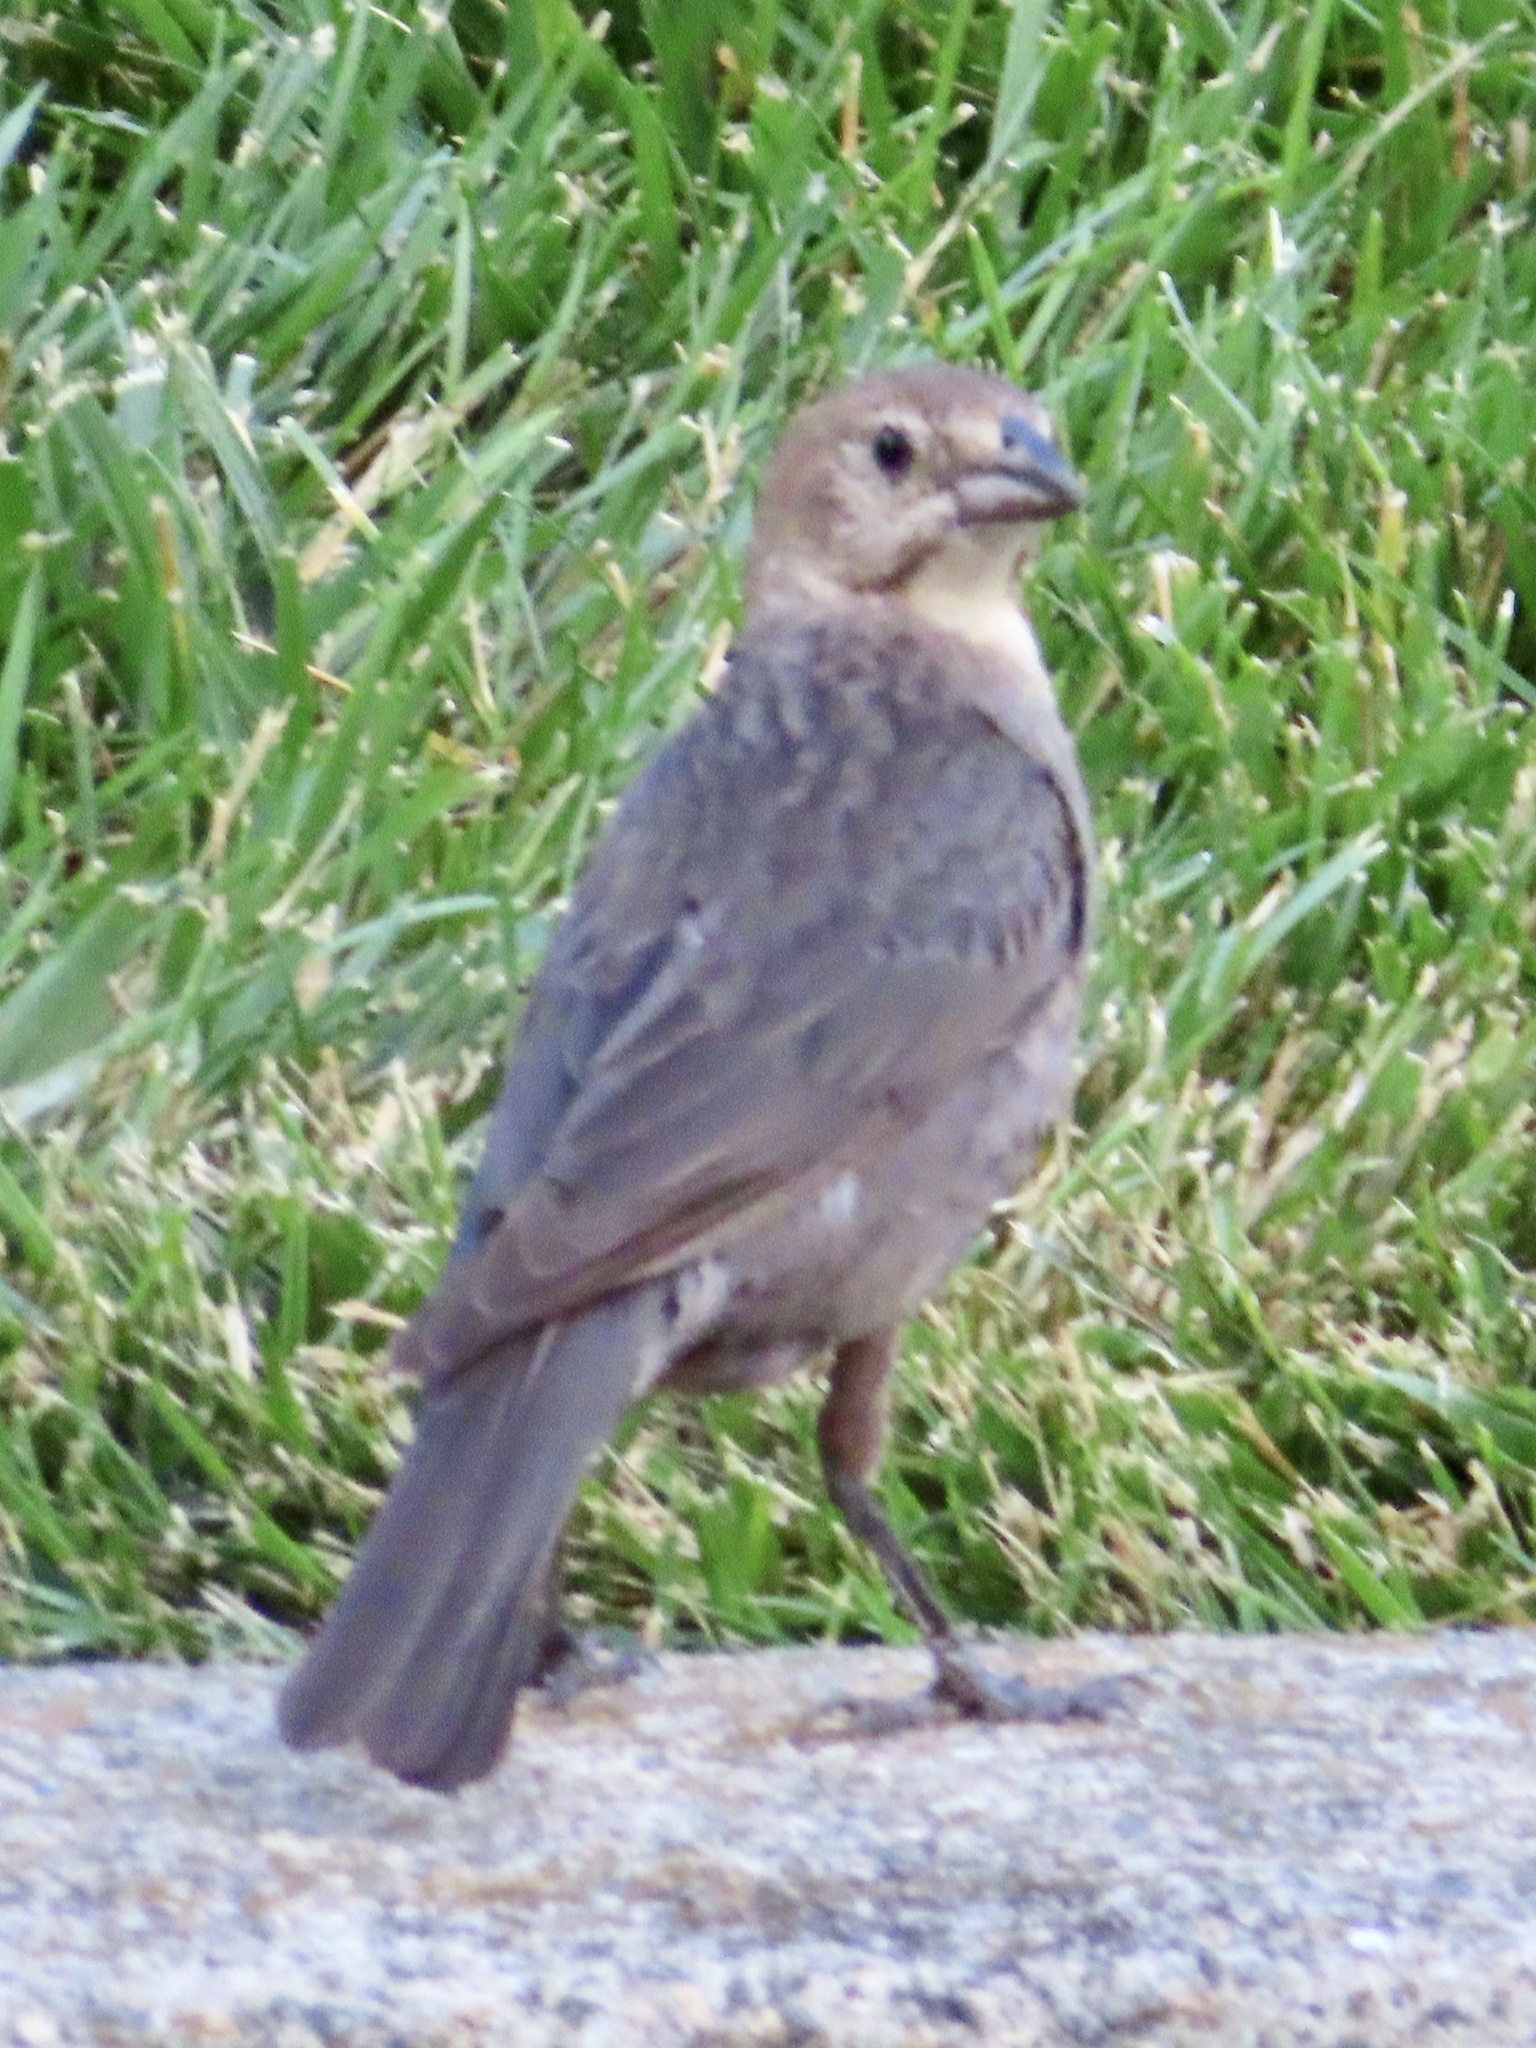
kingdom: Animalia
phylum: Chordata
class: Aves
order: Passeriformes
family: Icteridae
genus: Molothrus
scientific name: Molothrus ater
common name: Brown-headed cowbird
